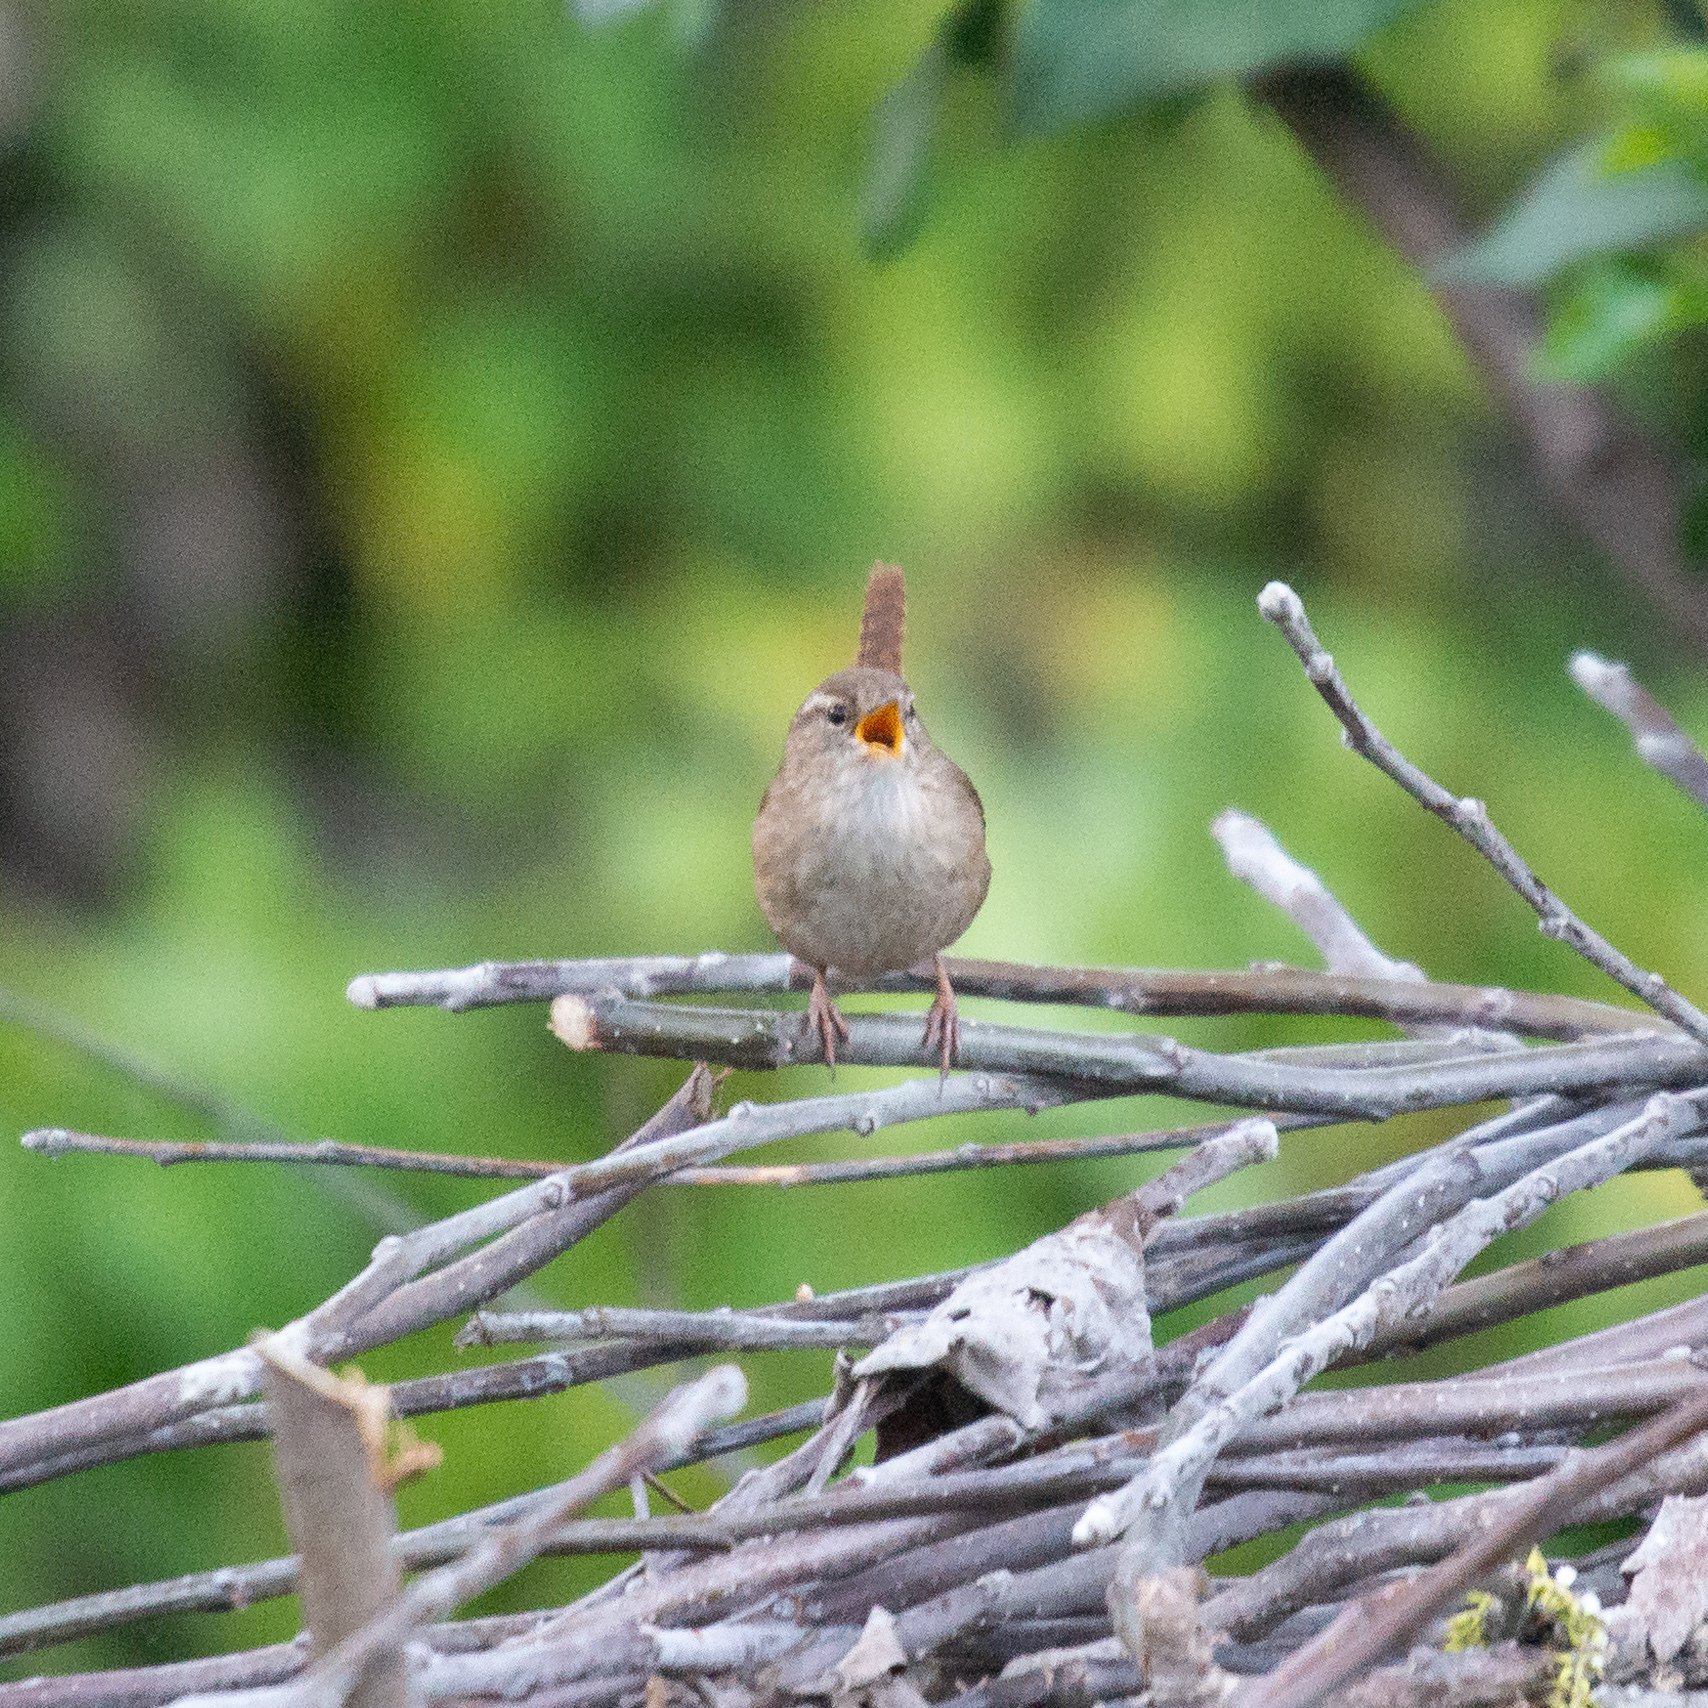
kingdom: Animalia
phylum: Chordata
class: Aves
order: Passeriformes
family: Troglodytidae
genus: Troglodytes
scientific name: Troglodytes troglodytes
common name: Eurasian wren
